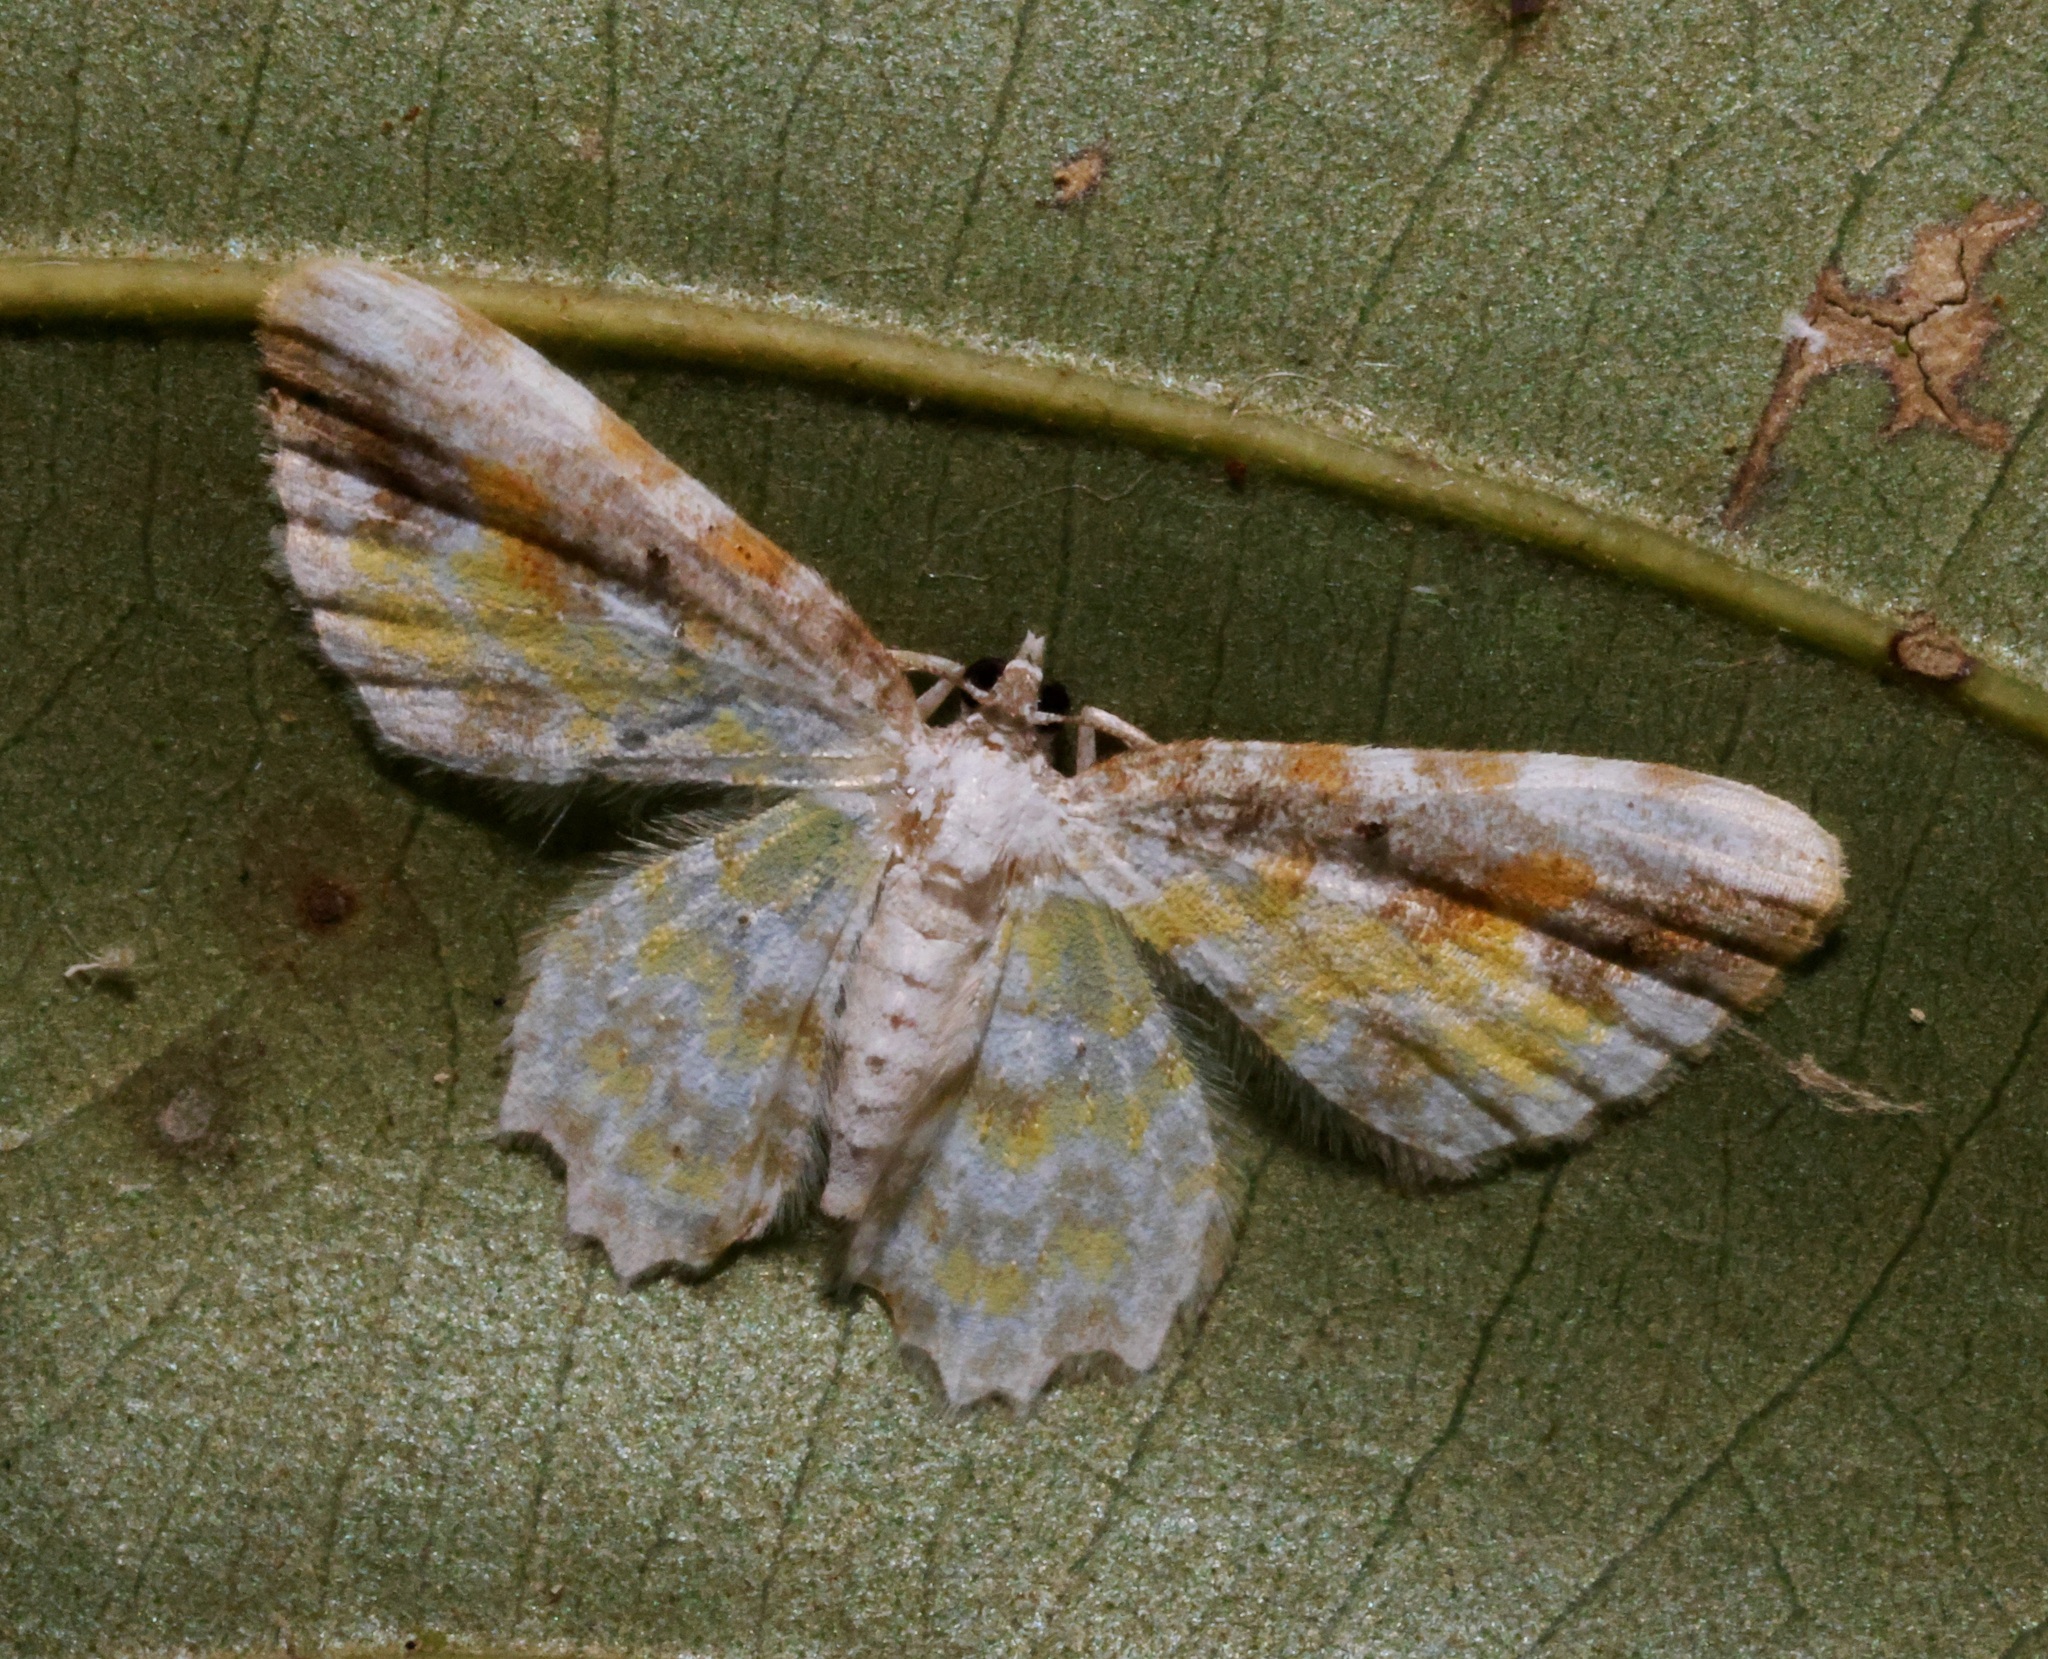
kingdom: Animalia
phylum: Arthropoda
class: Insecta
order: Lepidoptera
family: Geometridae
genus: Acolutha
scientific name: Acolutha pictaria
